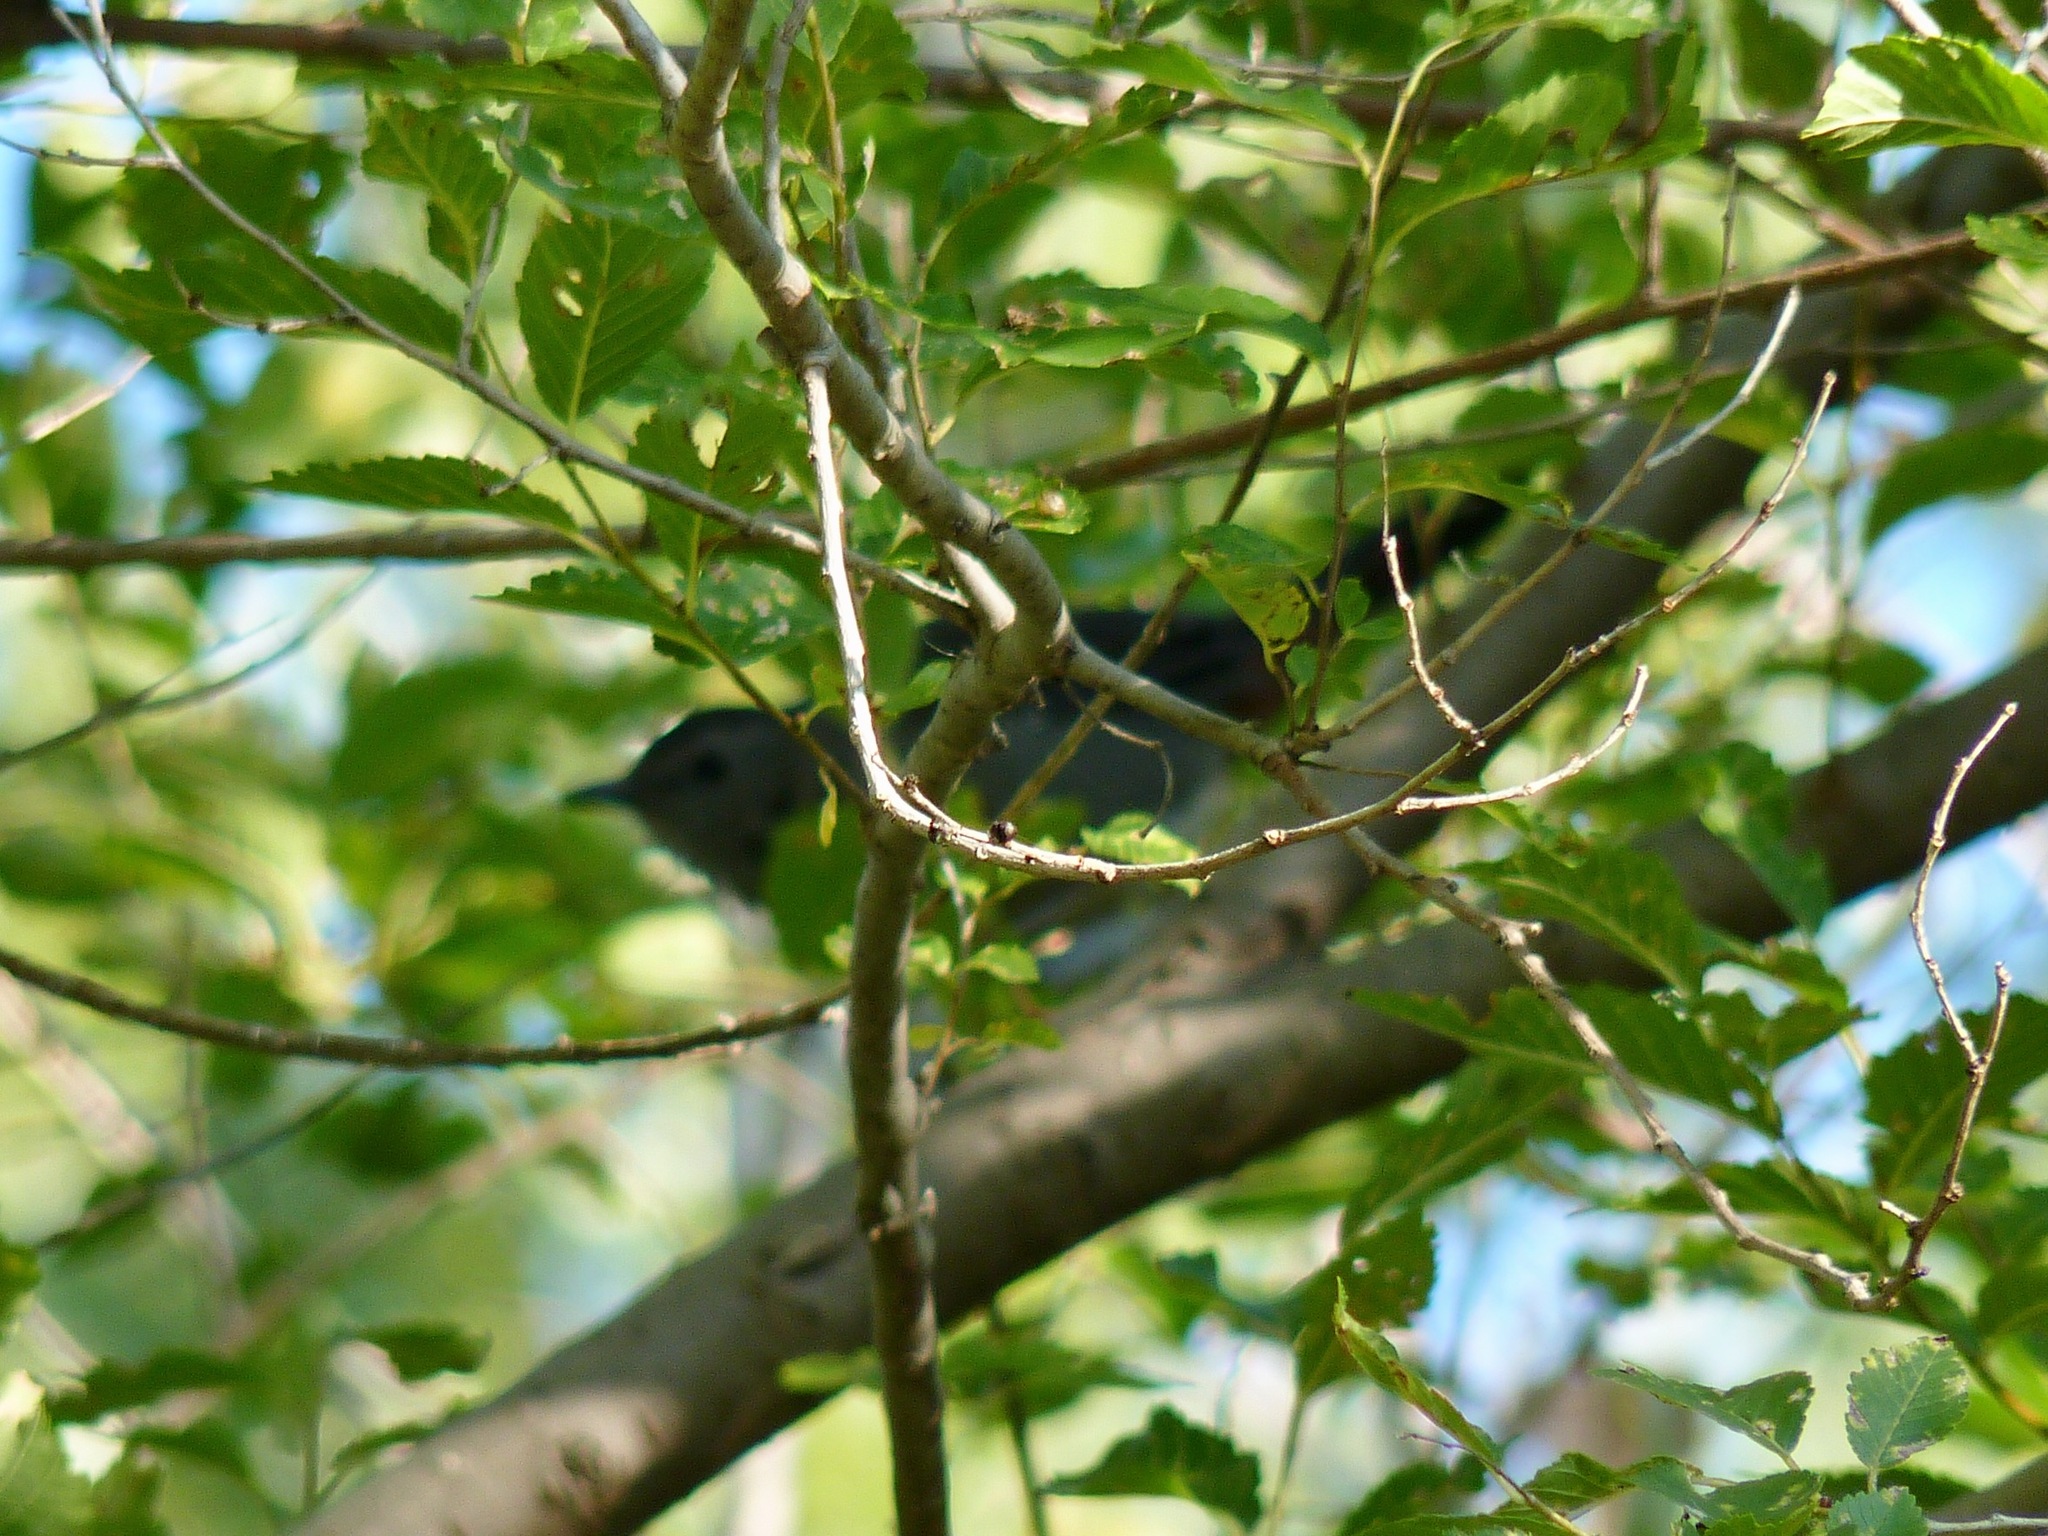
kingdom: Animalia
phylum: Chordata
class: Aves
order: Passeriformes
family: Mimidae
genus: Dumetella
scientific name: Dumetella carolinensis
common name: Gray catbird
